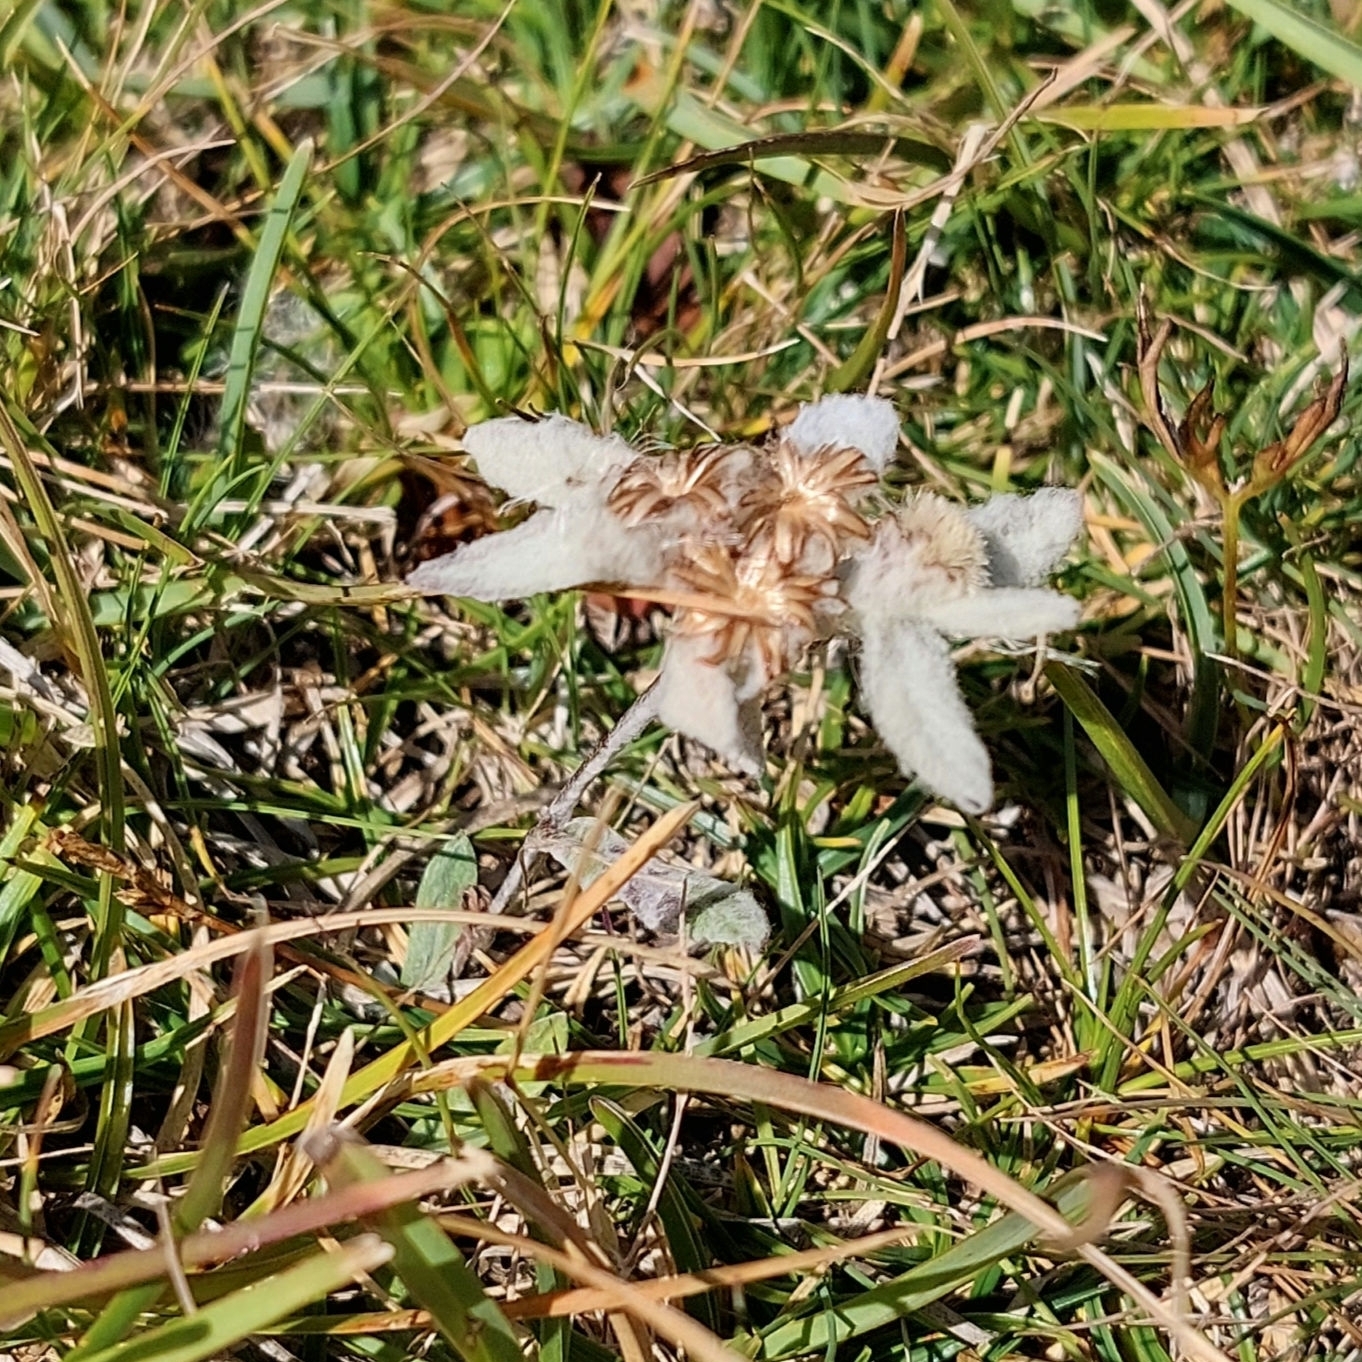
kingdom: Plantae
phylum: Tracheophyta
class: Magnoliopsida
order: Asterales
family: Asteraceae
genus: Leontopodium
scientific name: Leontopodium nivale
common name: Edelweiss
